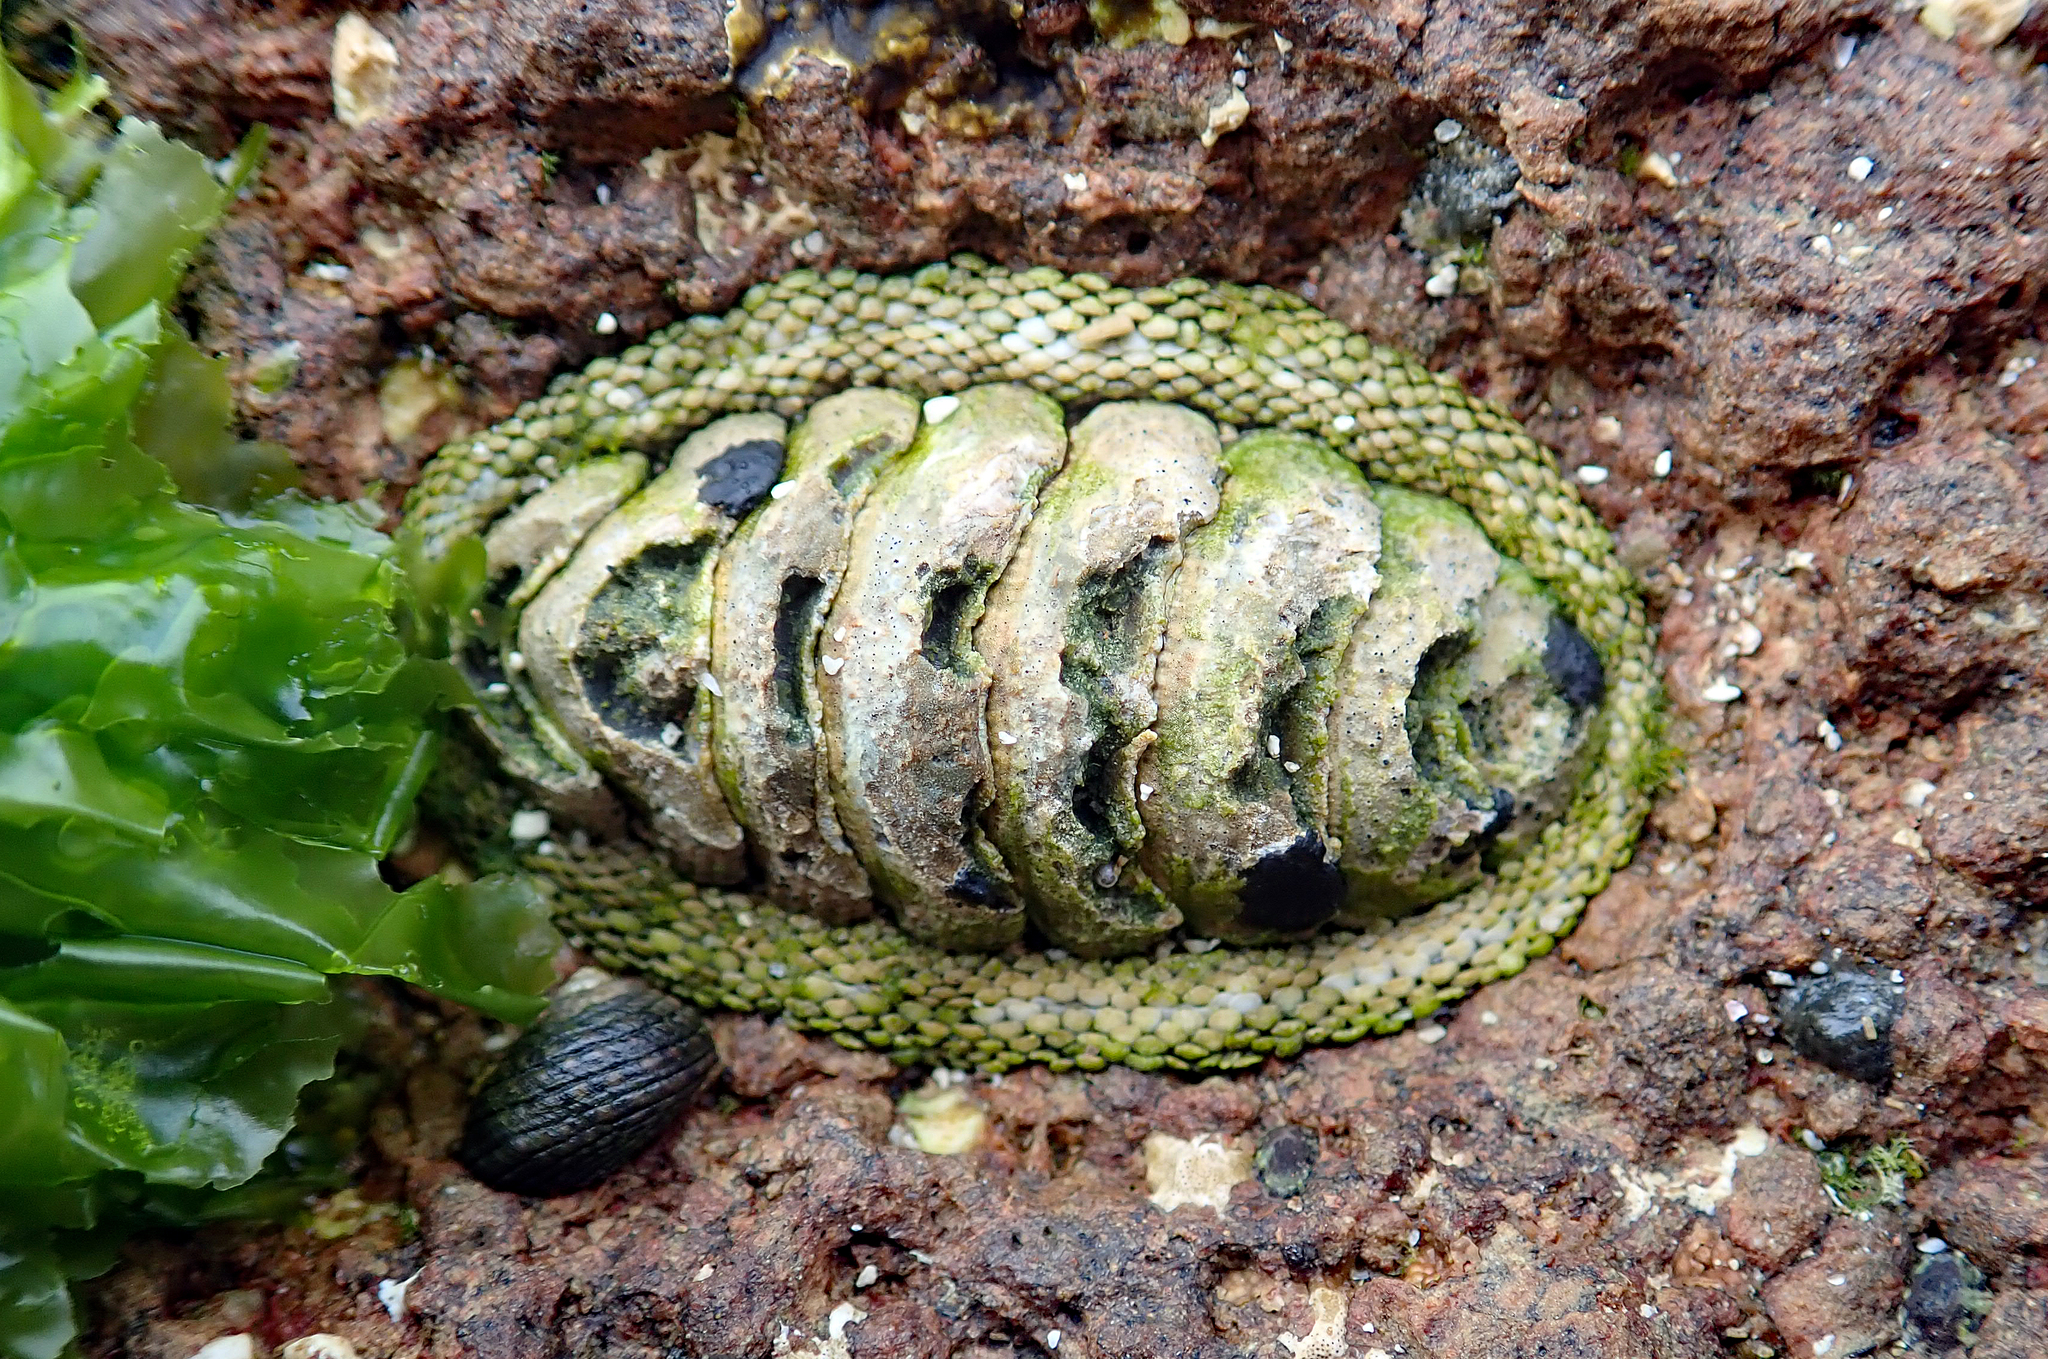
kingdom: Animalia
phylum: Mollusca
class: Polyplacophora
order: Chitonida
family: Chitonidae
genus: Sypharochiton
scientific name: Sypharochiton pelliserpentis
